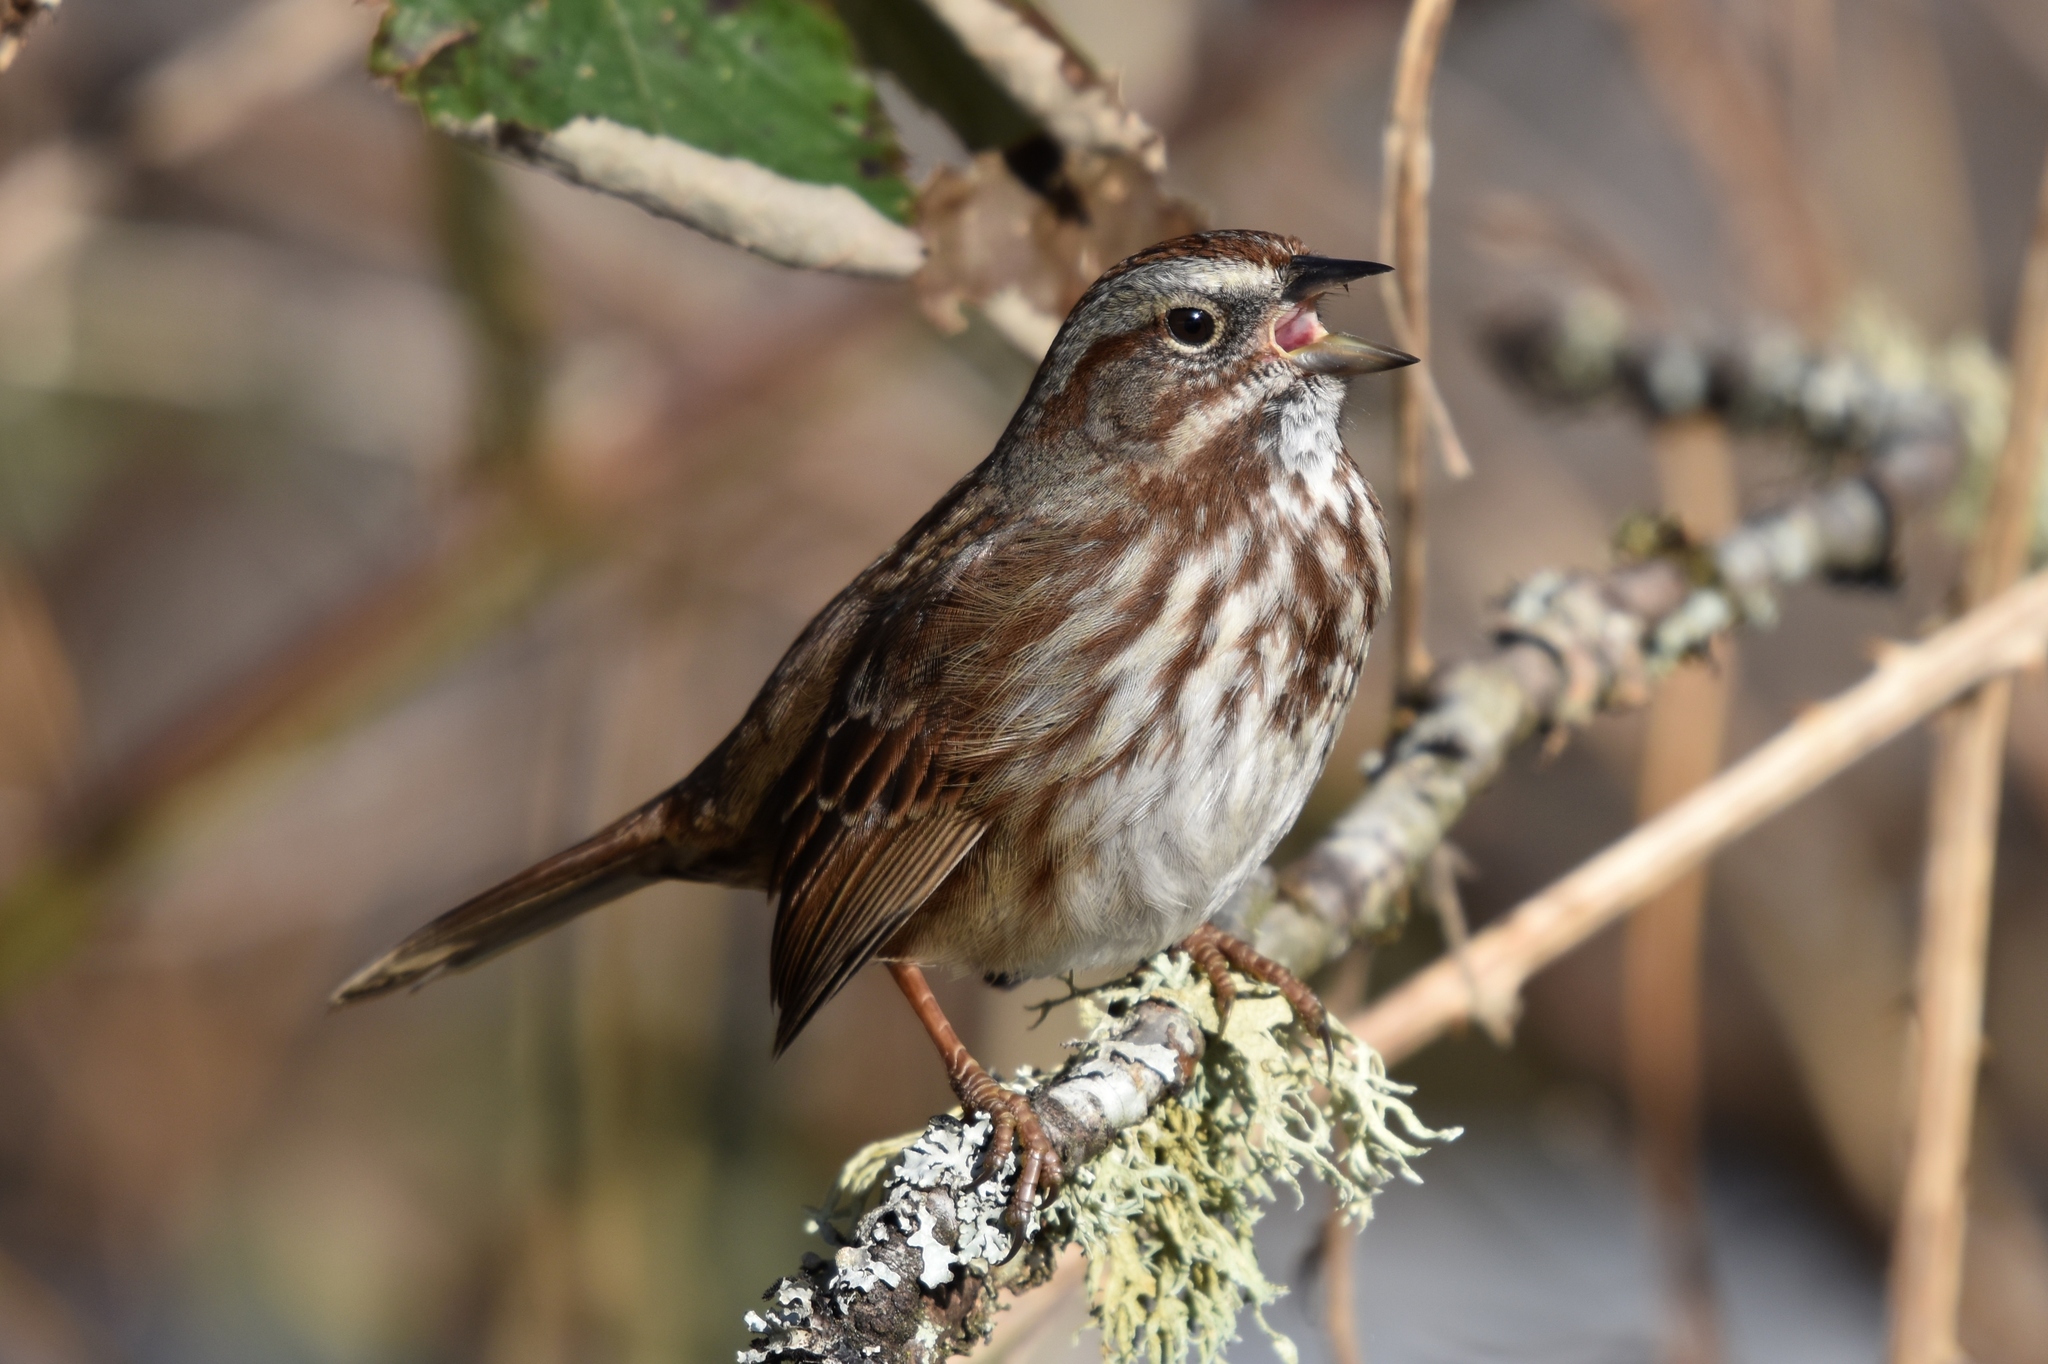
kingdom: Animalia
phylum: Chordata
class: Aves
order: Passeriformes
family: Passerellidae
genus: Melospiza
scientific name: Melospiza melodia
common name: Song sparrow
